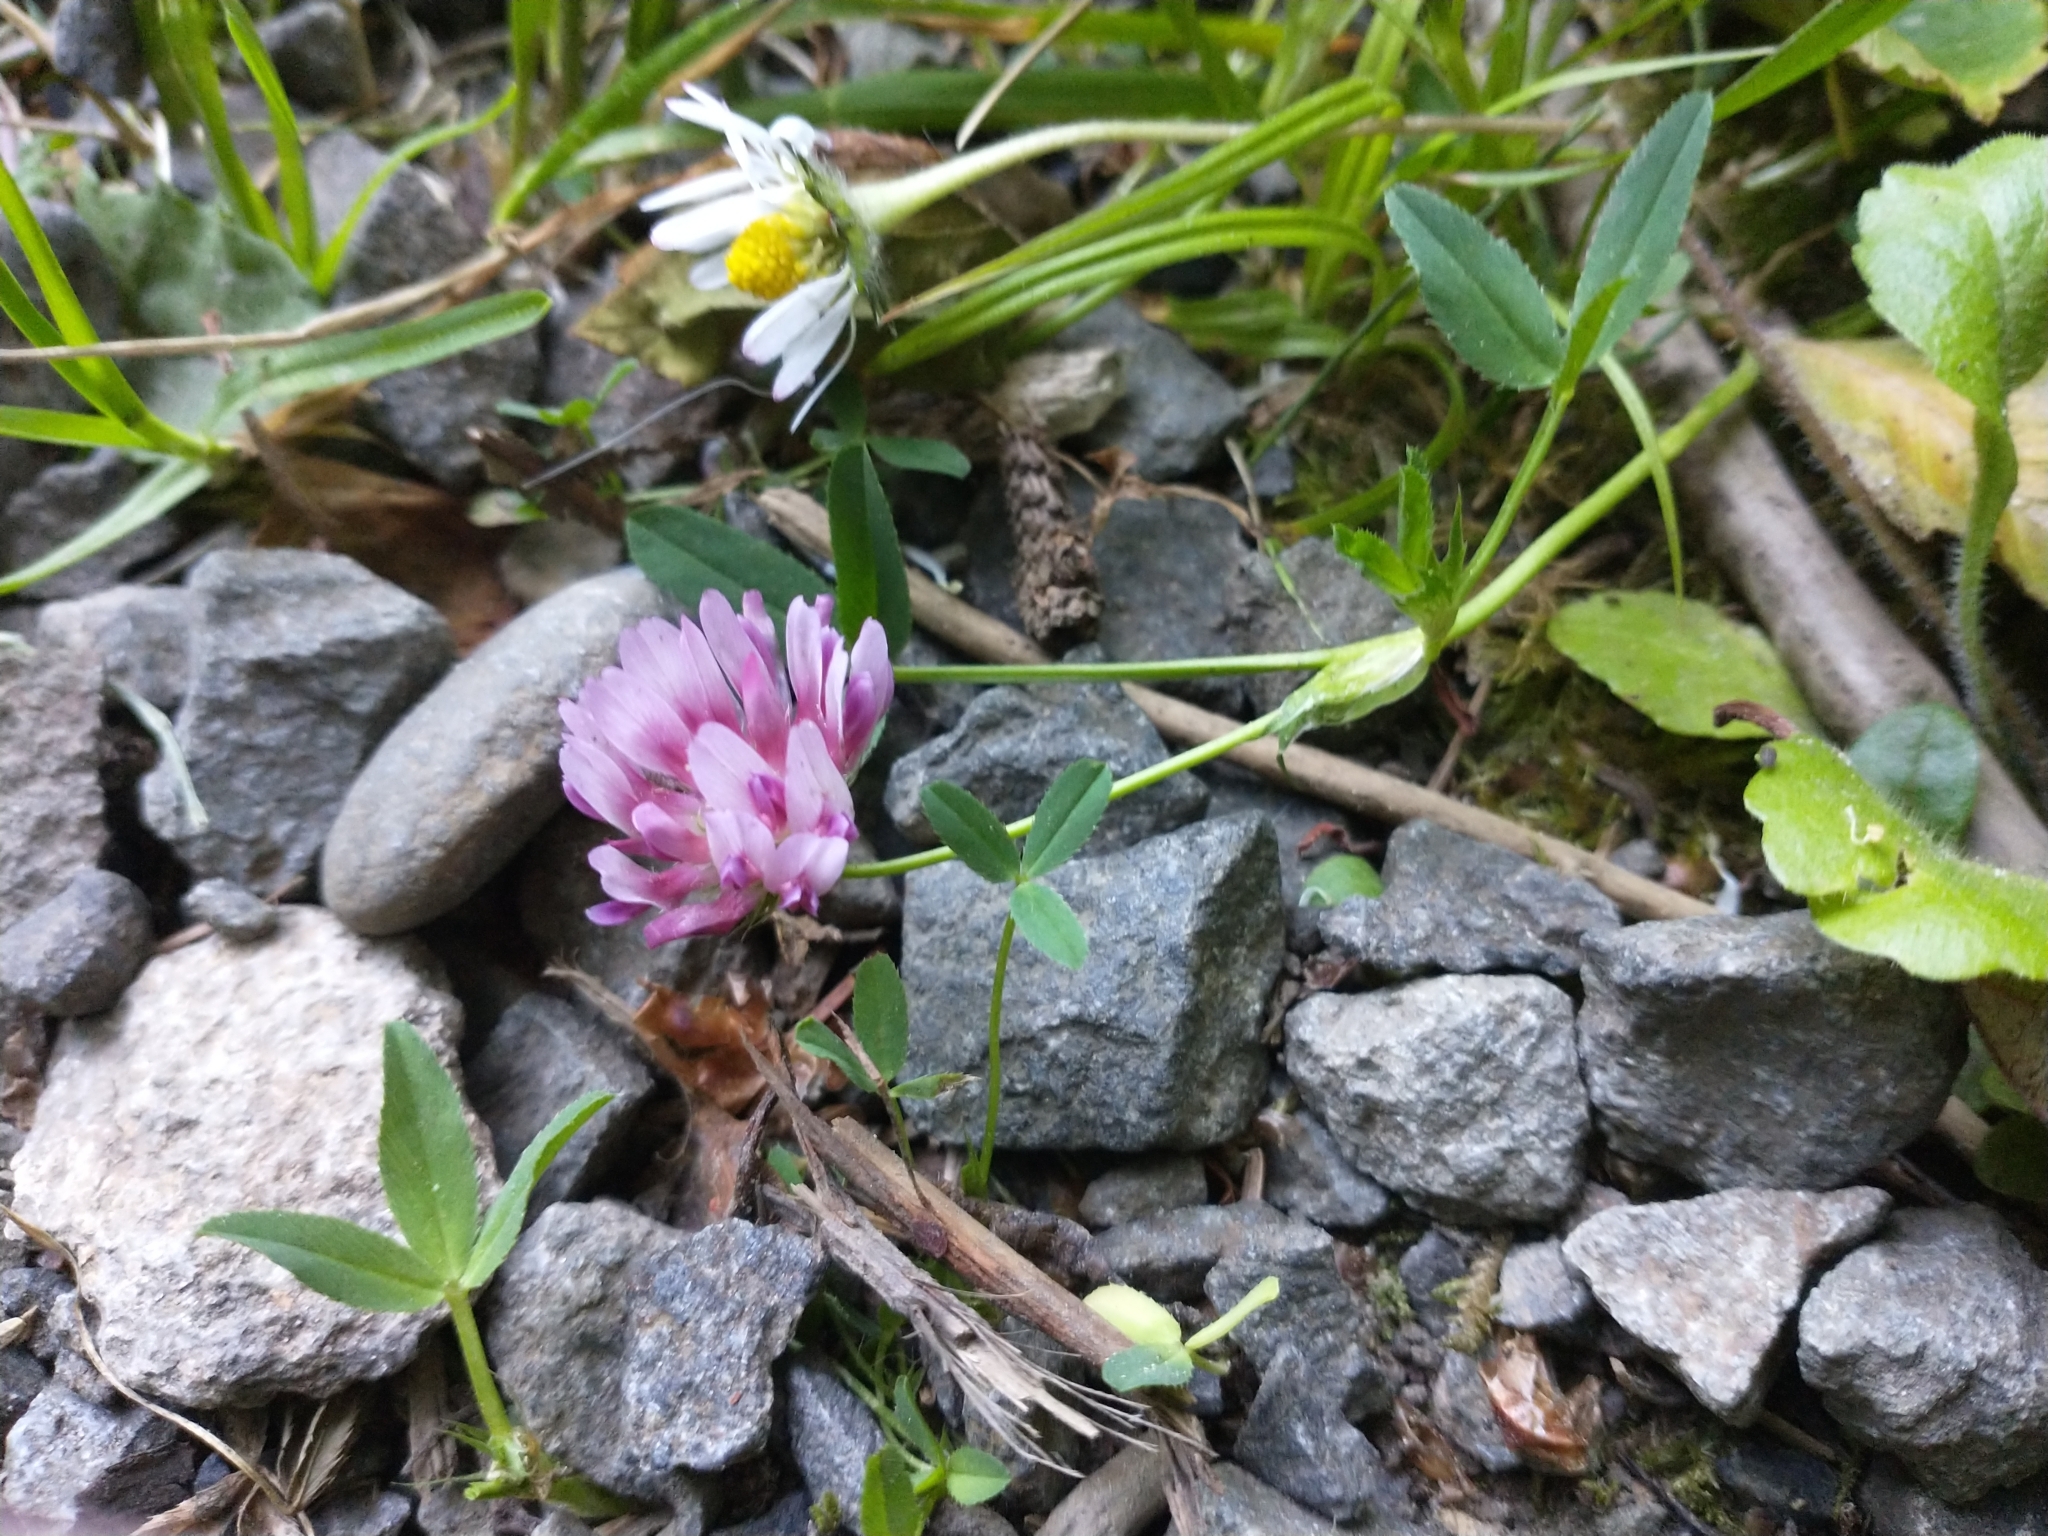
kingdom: Plantae
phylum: Tracheophyta
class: Magnoliopsida
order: Fabales
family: Fabaceae
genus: Trifolium
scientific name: Trifolium wormskioldii
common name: Springbank clover
